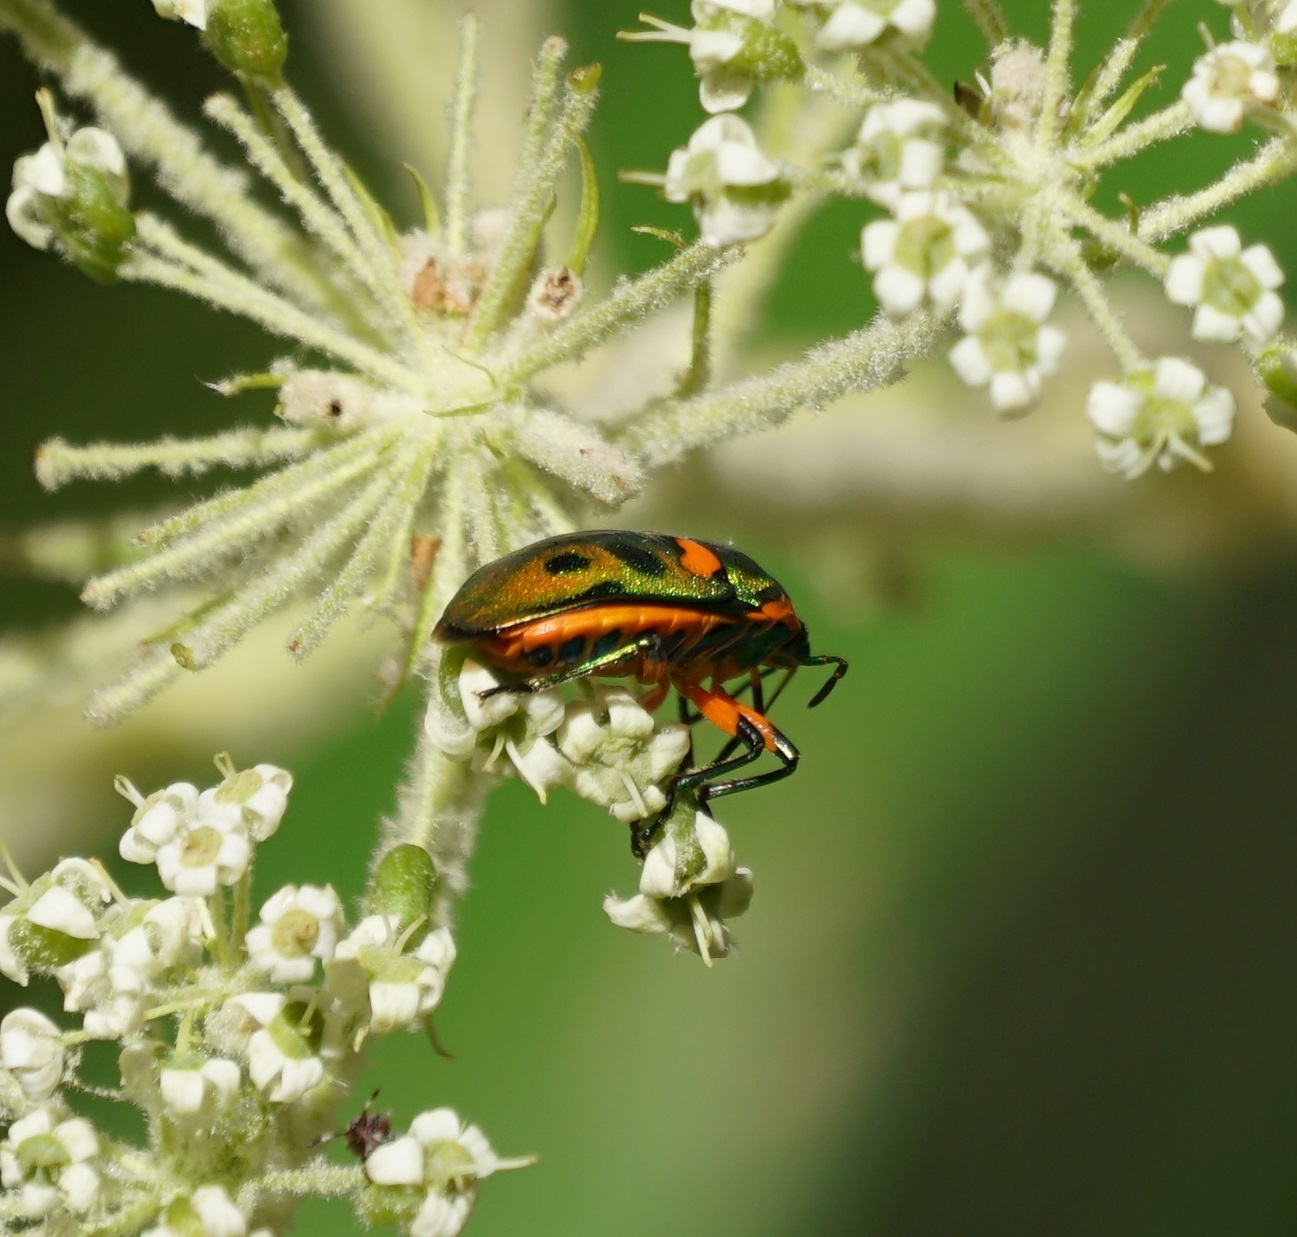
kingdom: Animalia
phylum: Arthropoda
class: Insecta
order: Hemiptera
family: Scutelleridae
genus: Scutiphora
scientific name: Scutiphora pedicellata
